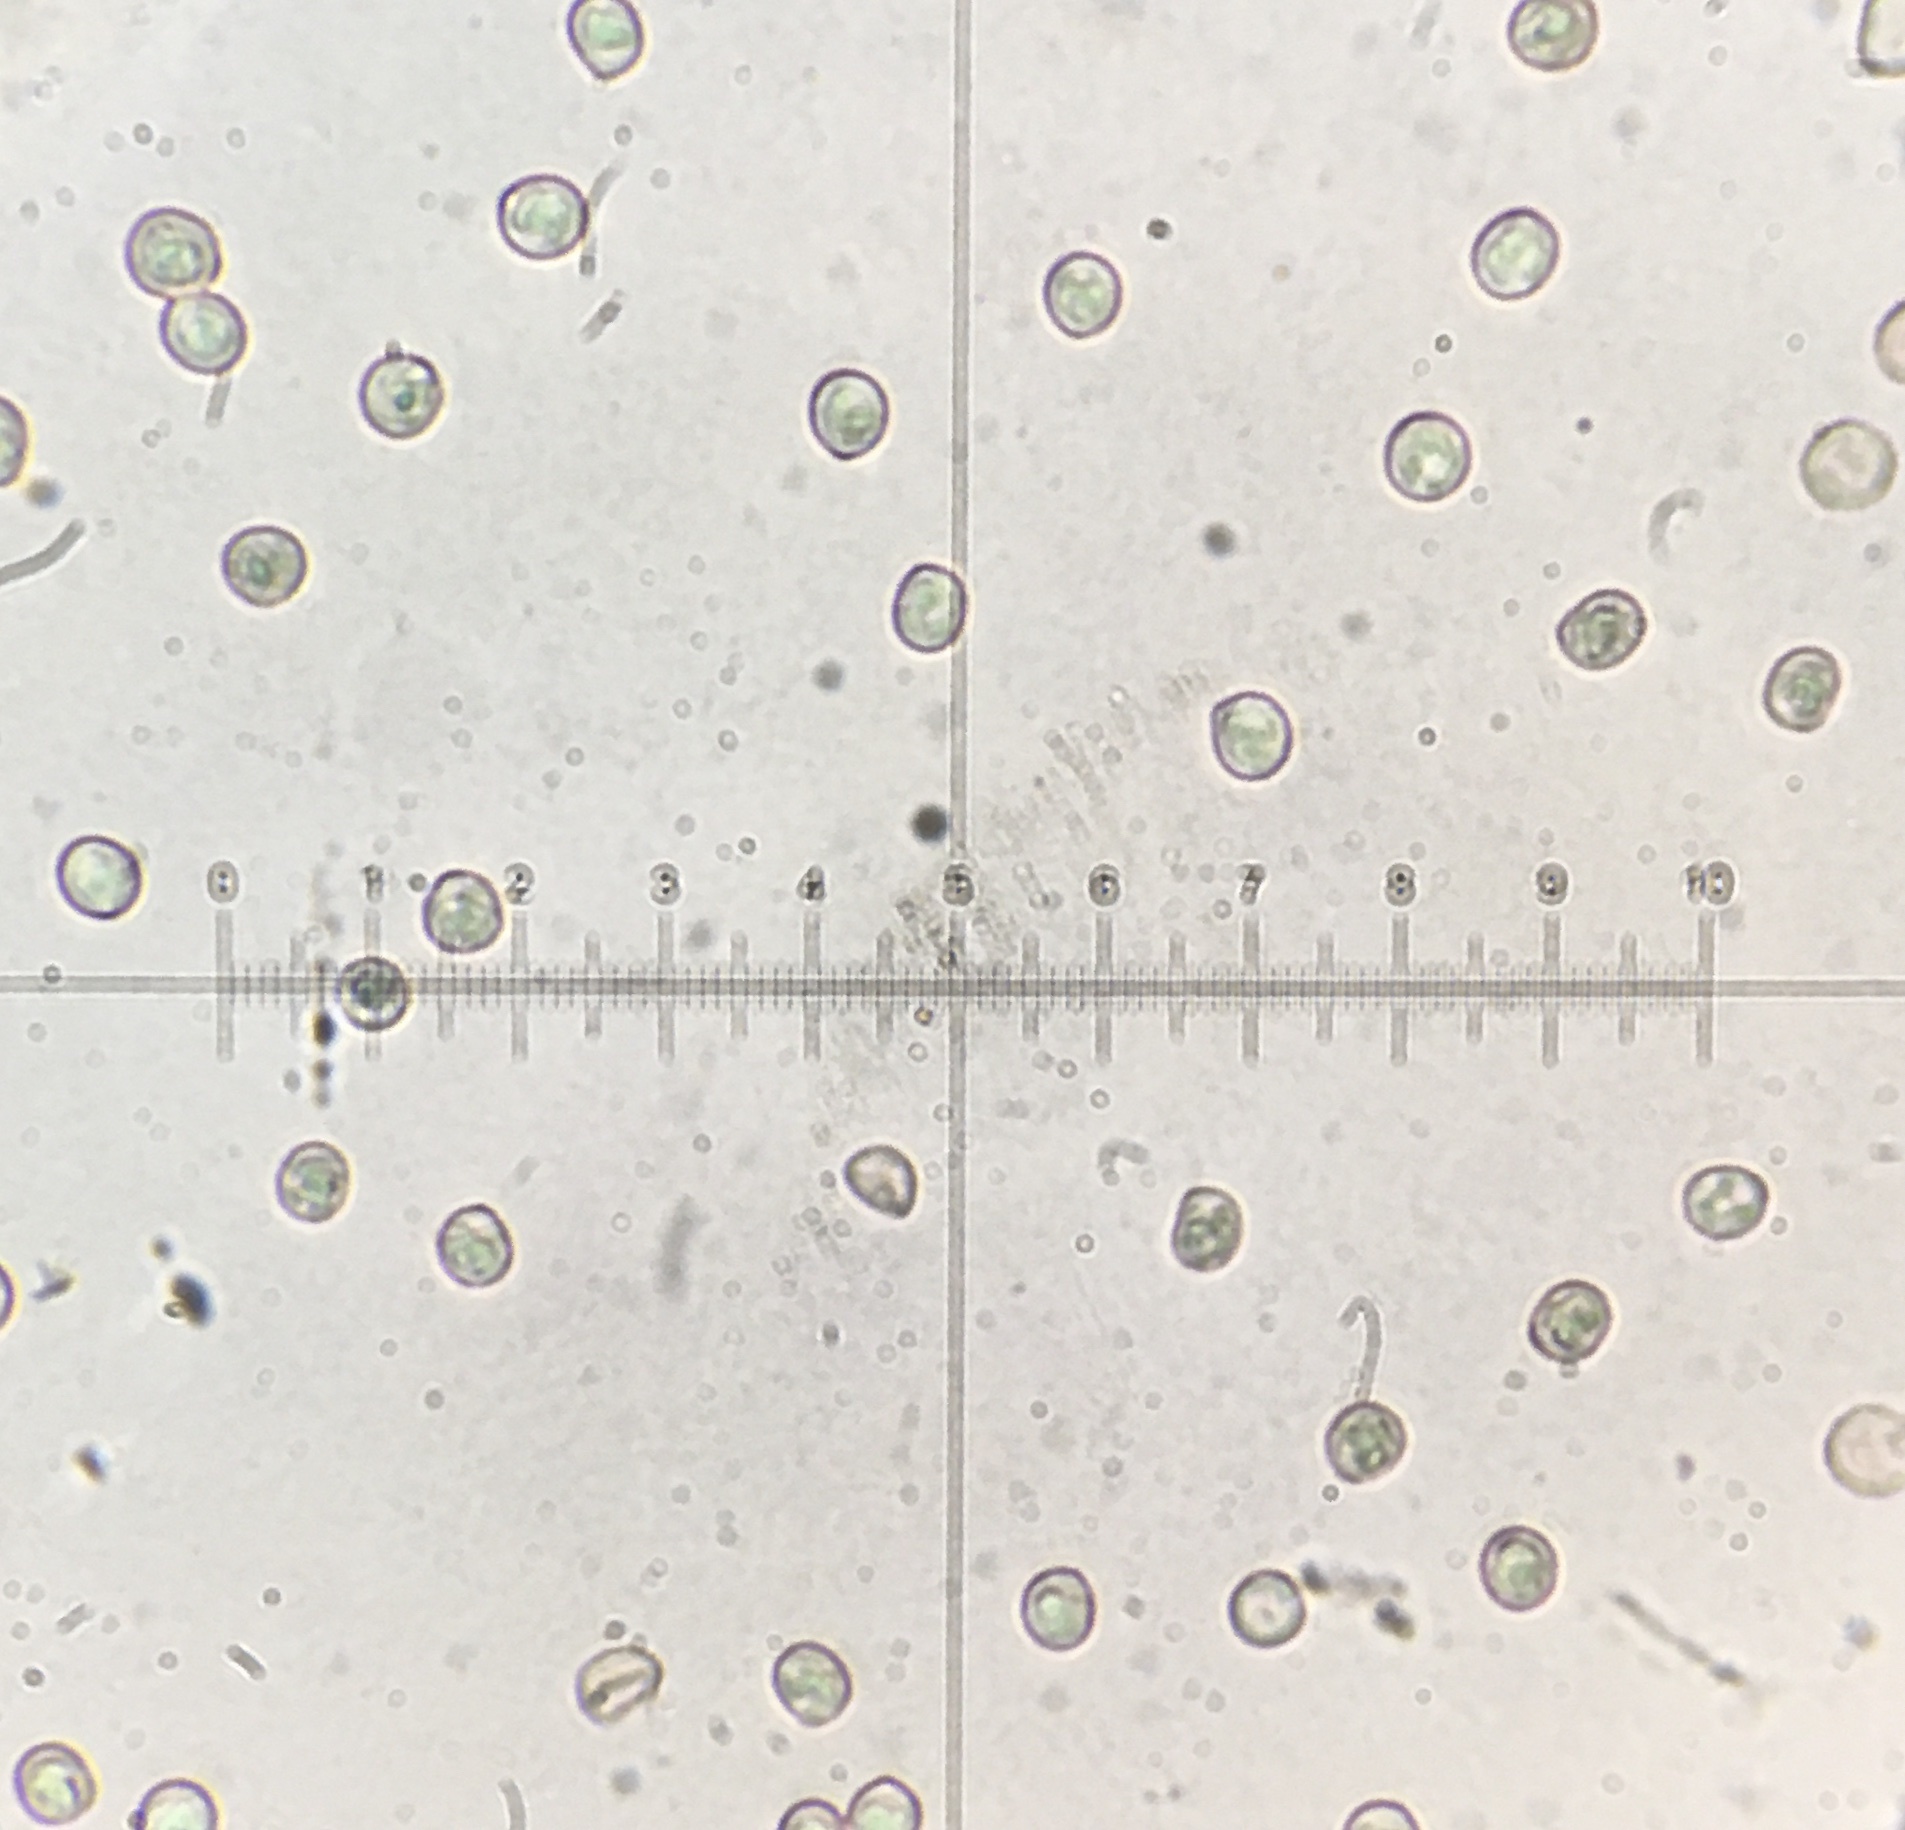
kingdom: Fungi
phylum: Basidiomycota
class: Agaricomycetes
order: Agaricales
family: Pluteaceae
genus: Pluteus
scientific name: Pluteus velutinus
